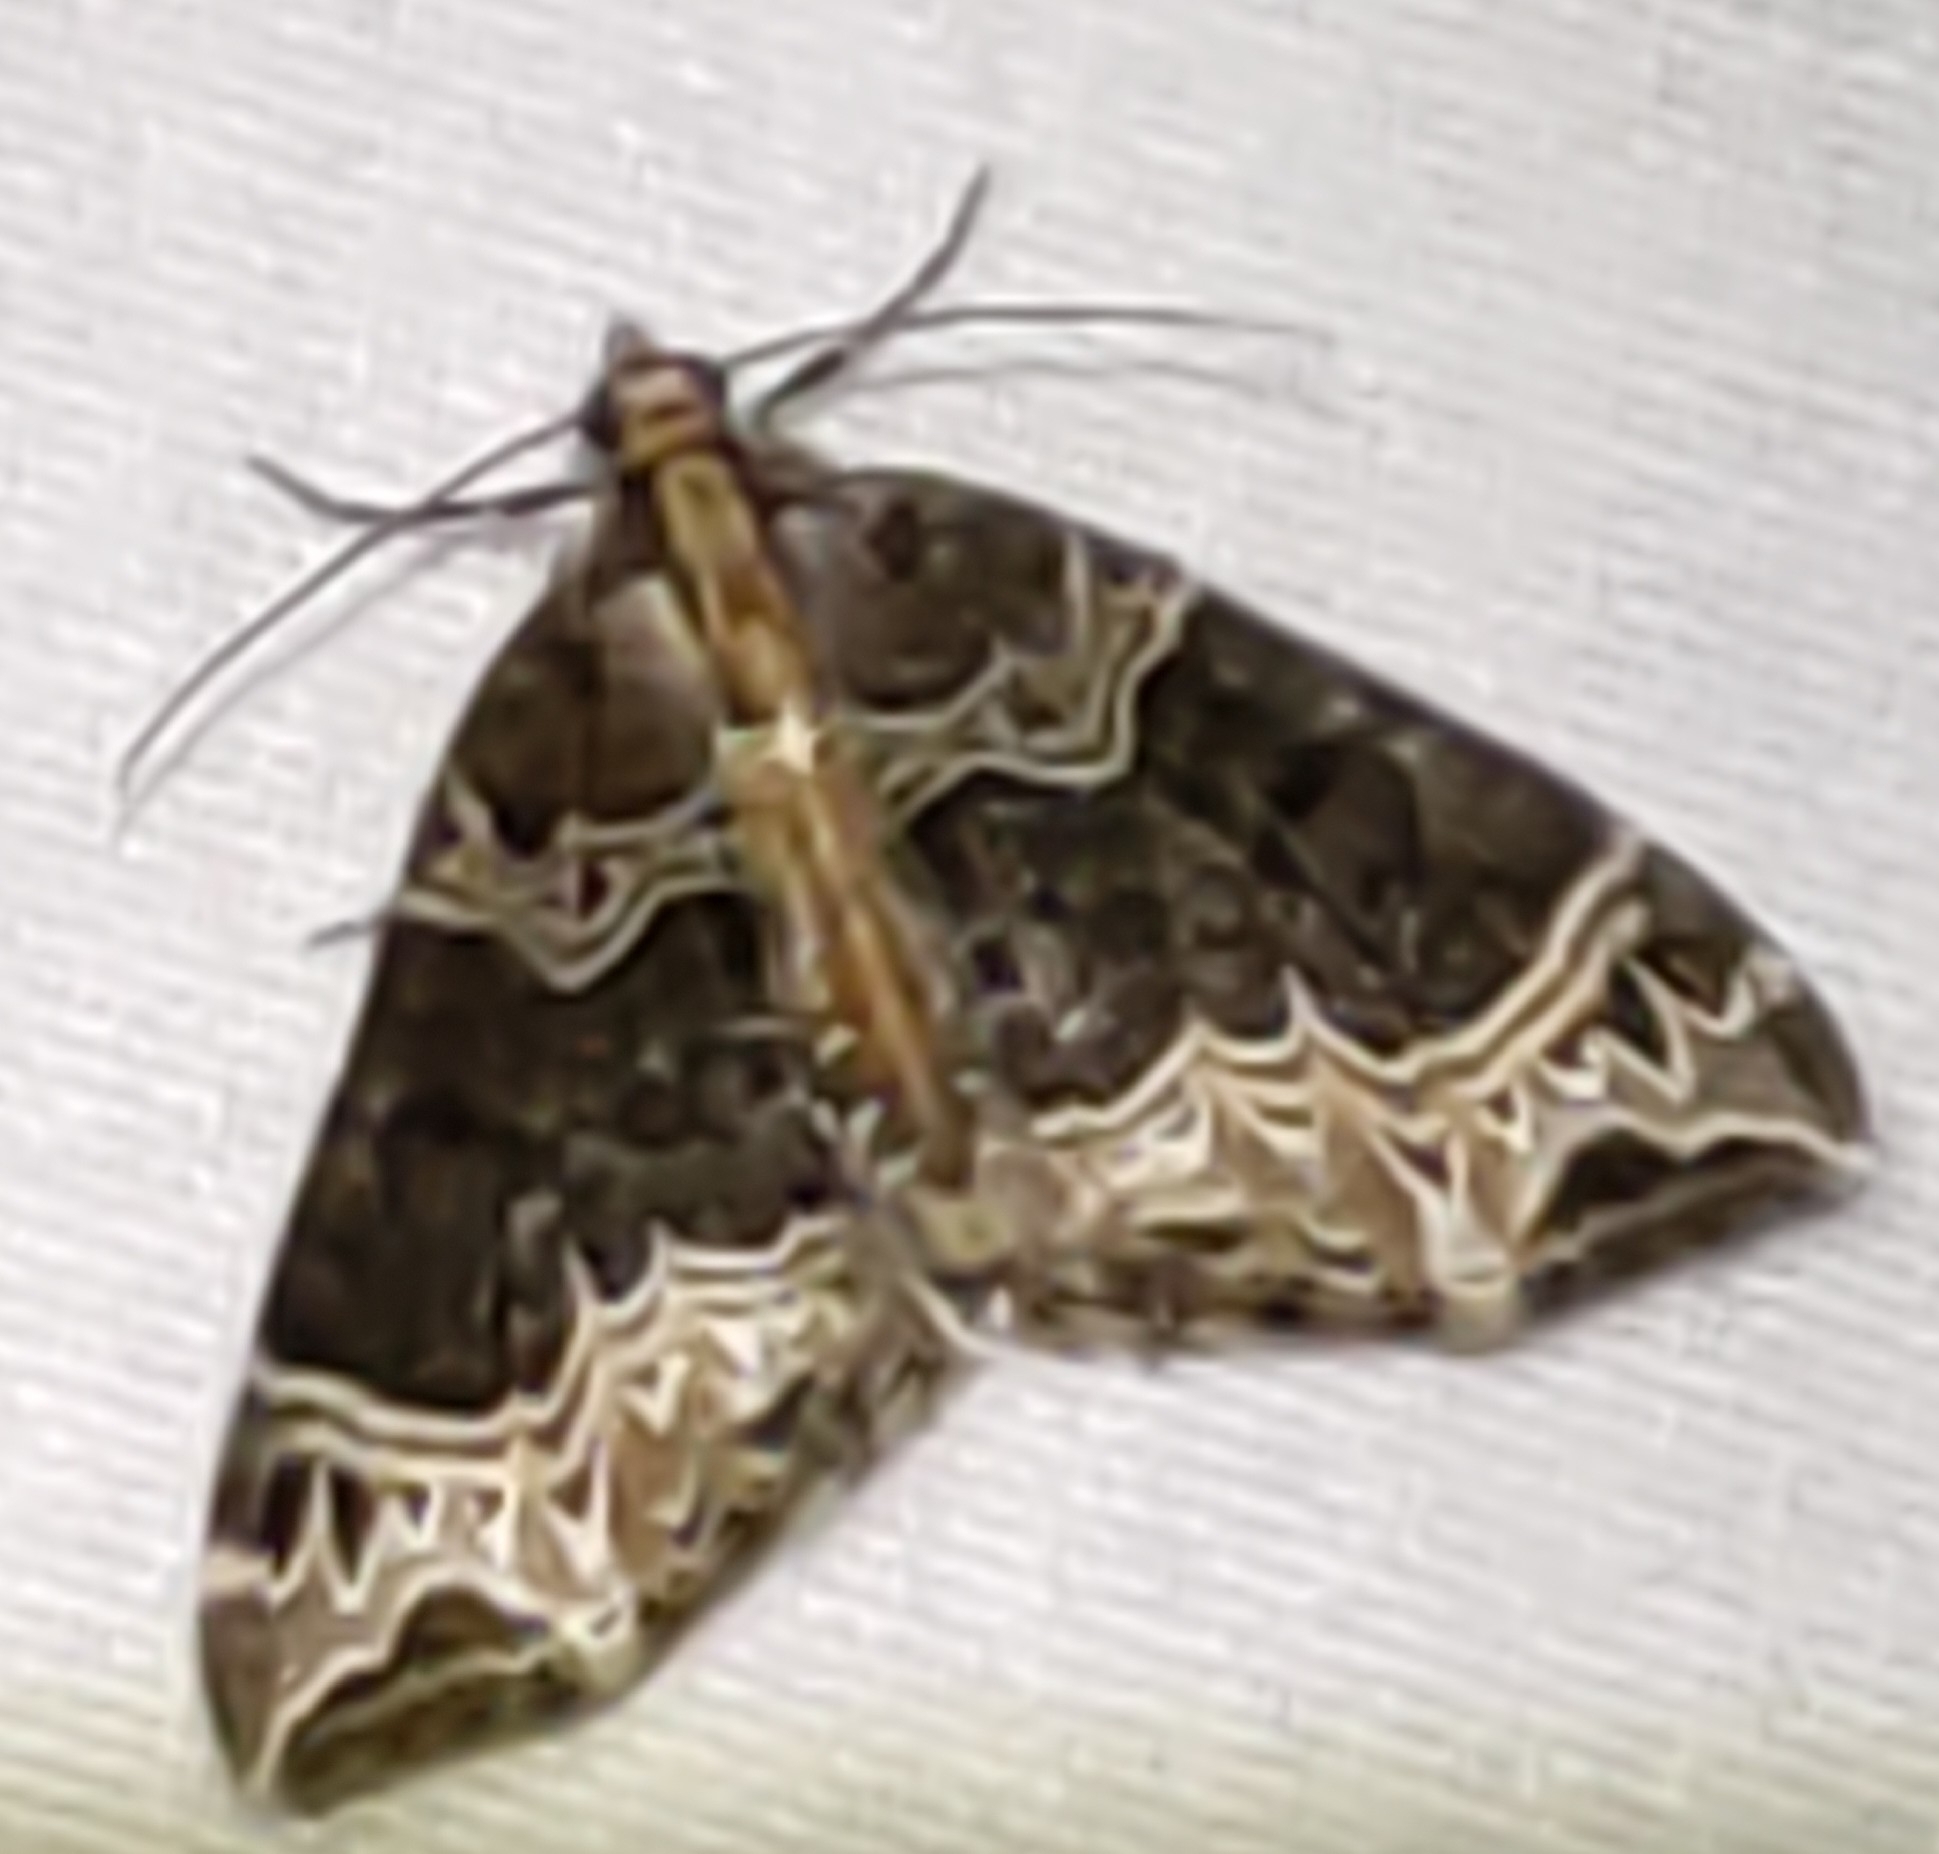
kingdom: Animalia
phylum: Arthropoda
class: Insecta
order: Lepidoptera
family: Geometridae
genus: Ecliptopera
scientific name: Ecliptopera silaceata
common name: Small phoenix
